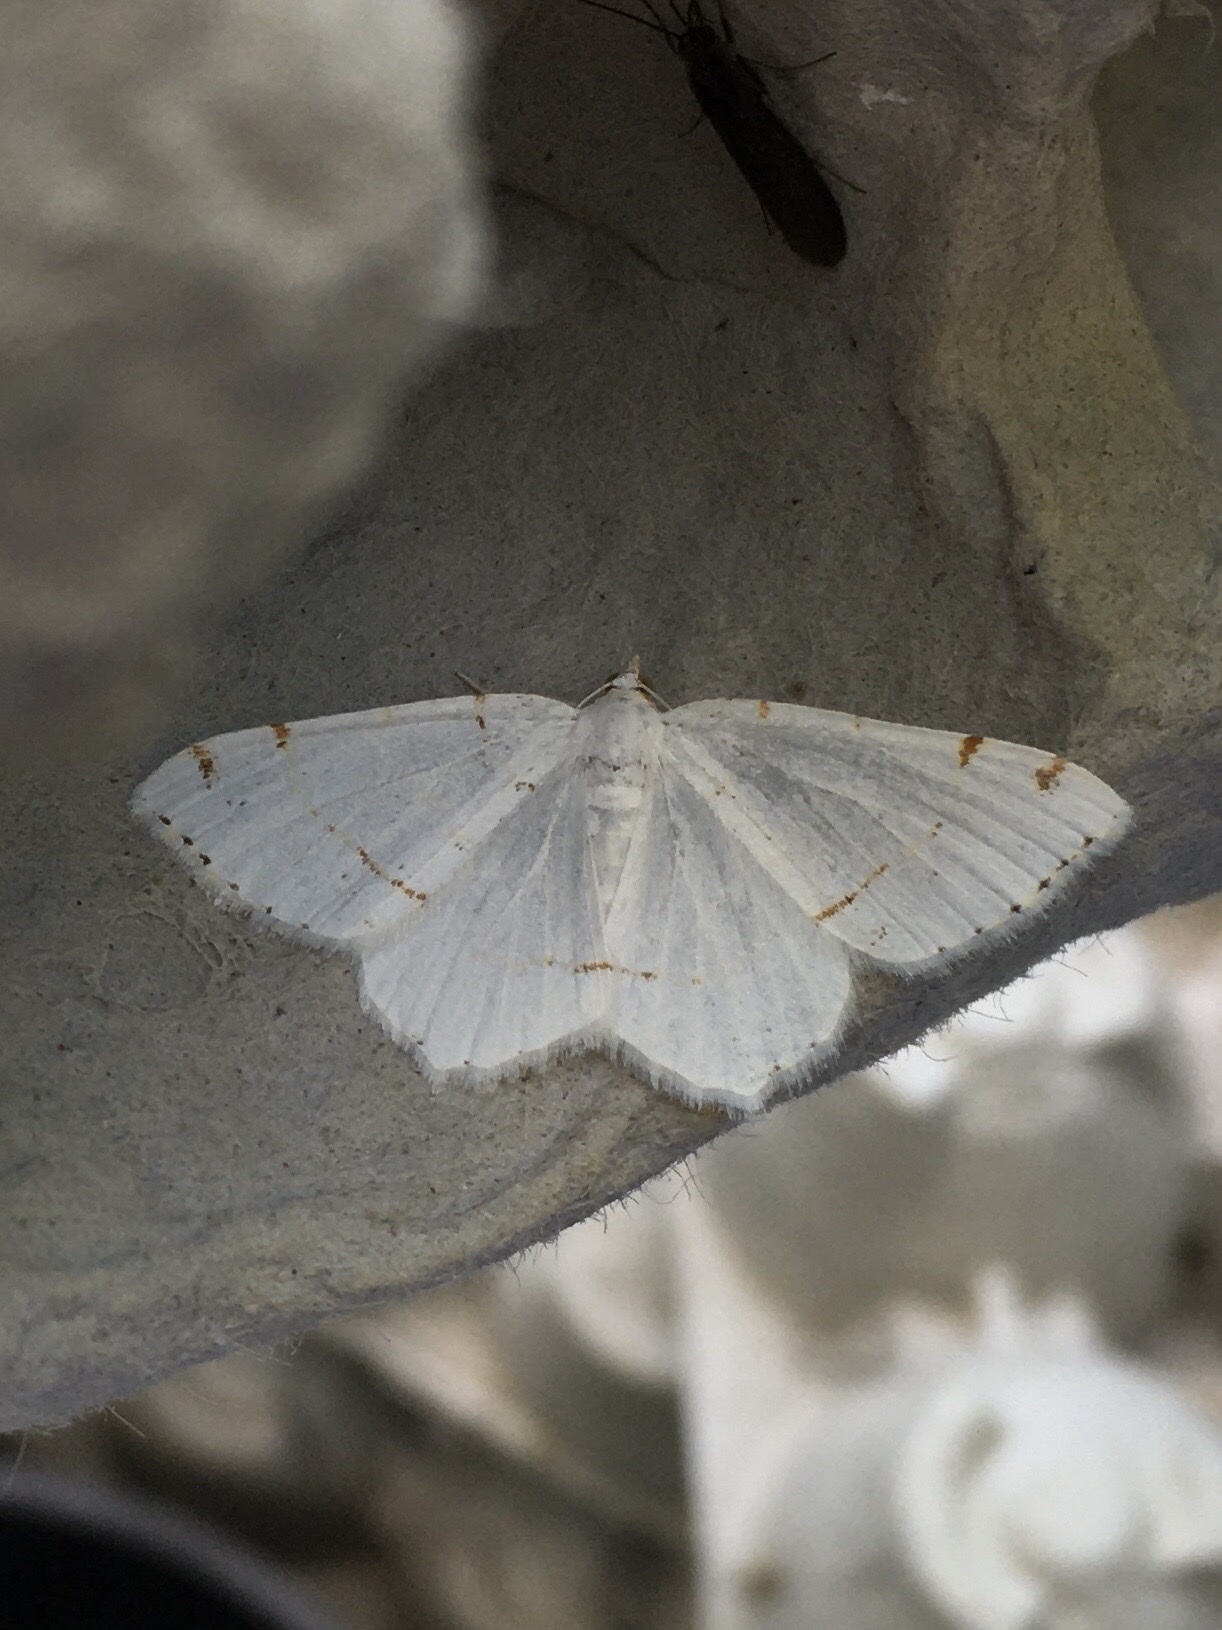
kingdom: Animalia
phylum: Arthropoda
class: Insecta
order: Lepidoptera
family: Geometridae
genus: Macaria
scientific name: Macaria pustularia
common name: Lesser maple spanworm moth
